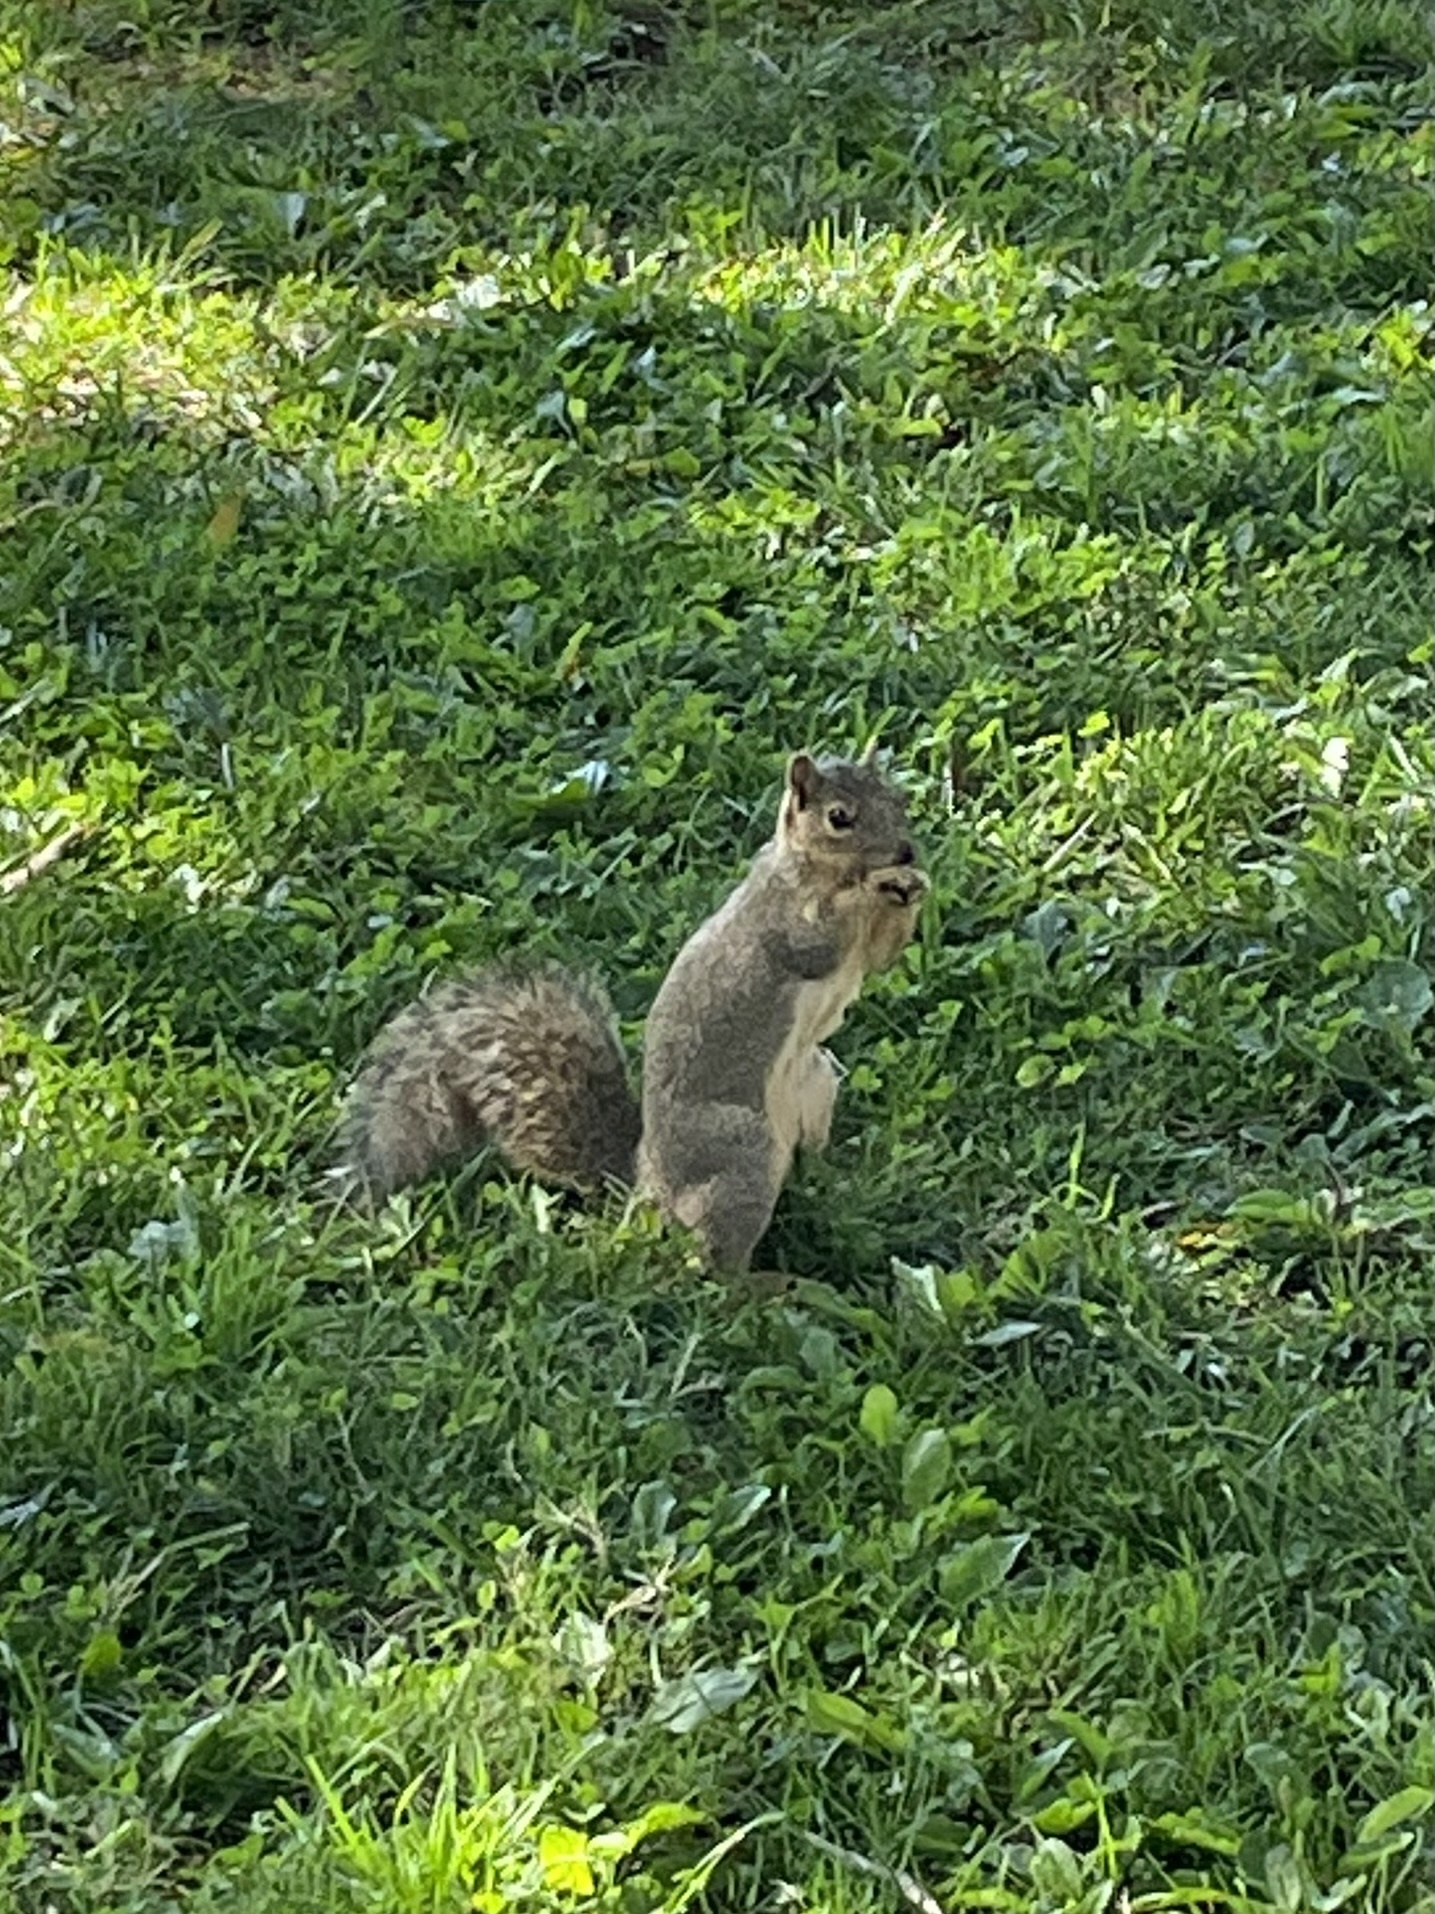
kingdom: Animalia
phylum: Chordata
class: Mammalia
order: Rodentia
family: Sciuridae
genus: Sciurus
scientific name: Sciurus niger
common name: Fox squirrel
